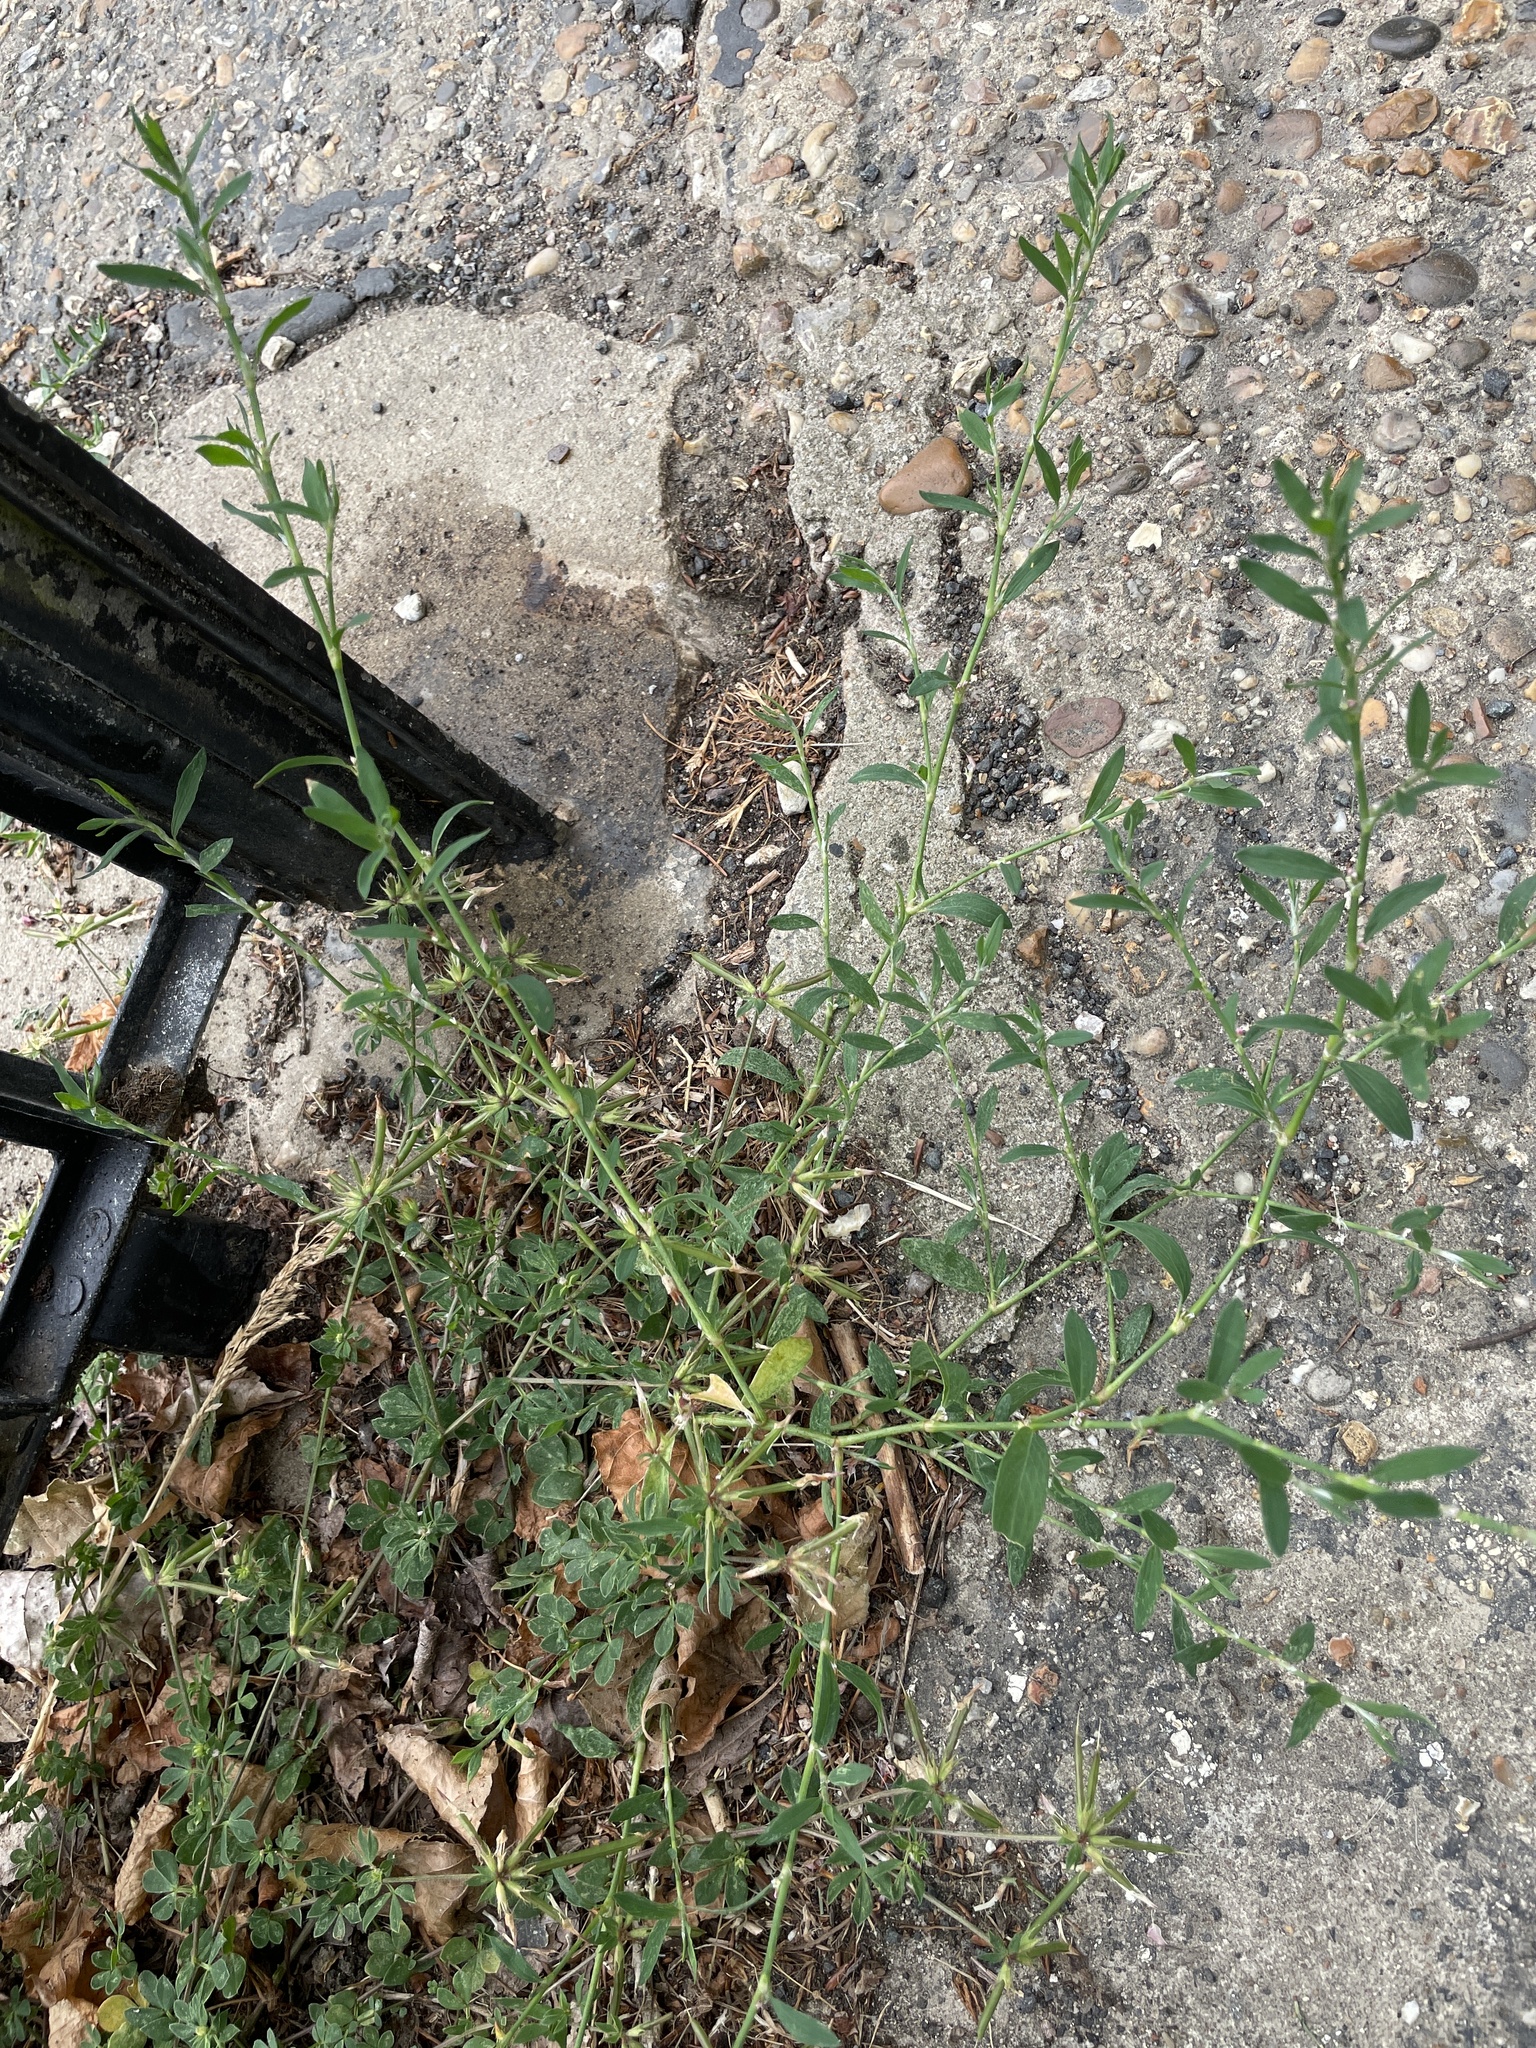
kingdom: Plantae
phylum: Tracheophyta
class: Magnoliopsida
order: Caryophyllales
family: Polygonaceae
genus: Polygonum
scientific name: Polygonum aviculare
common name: Prostrate knotweed
